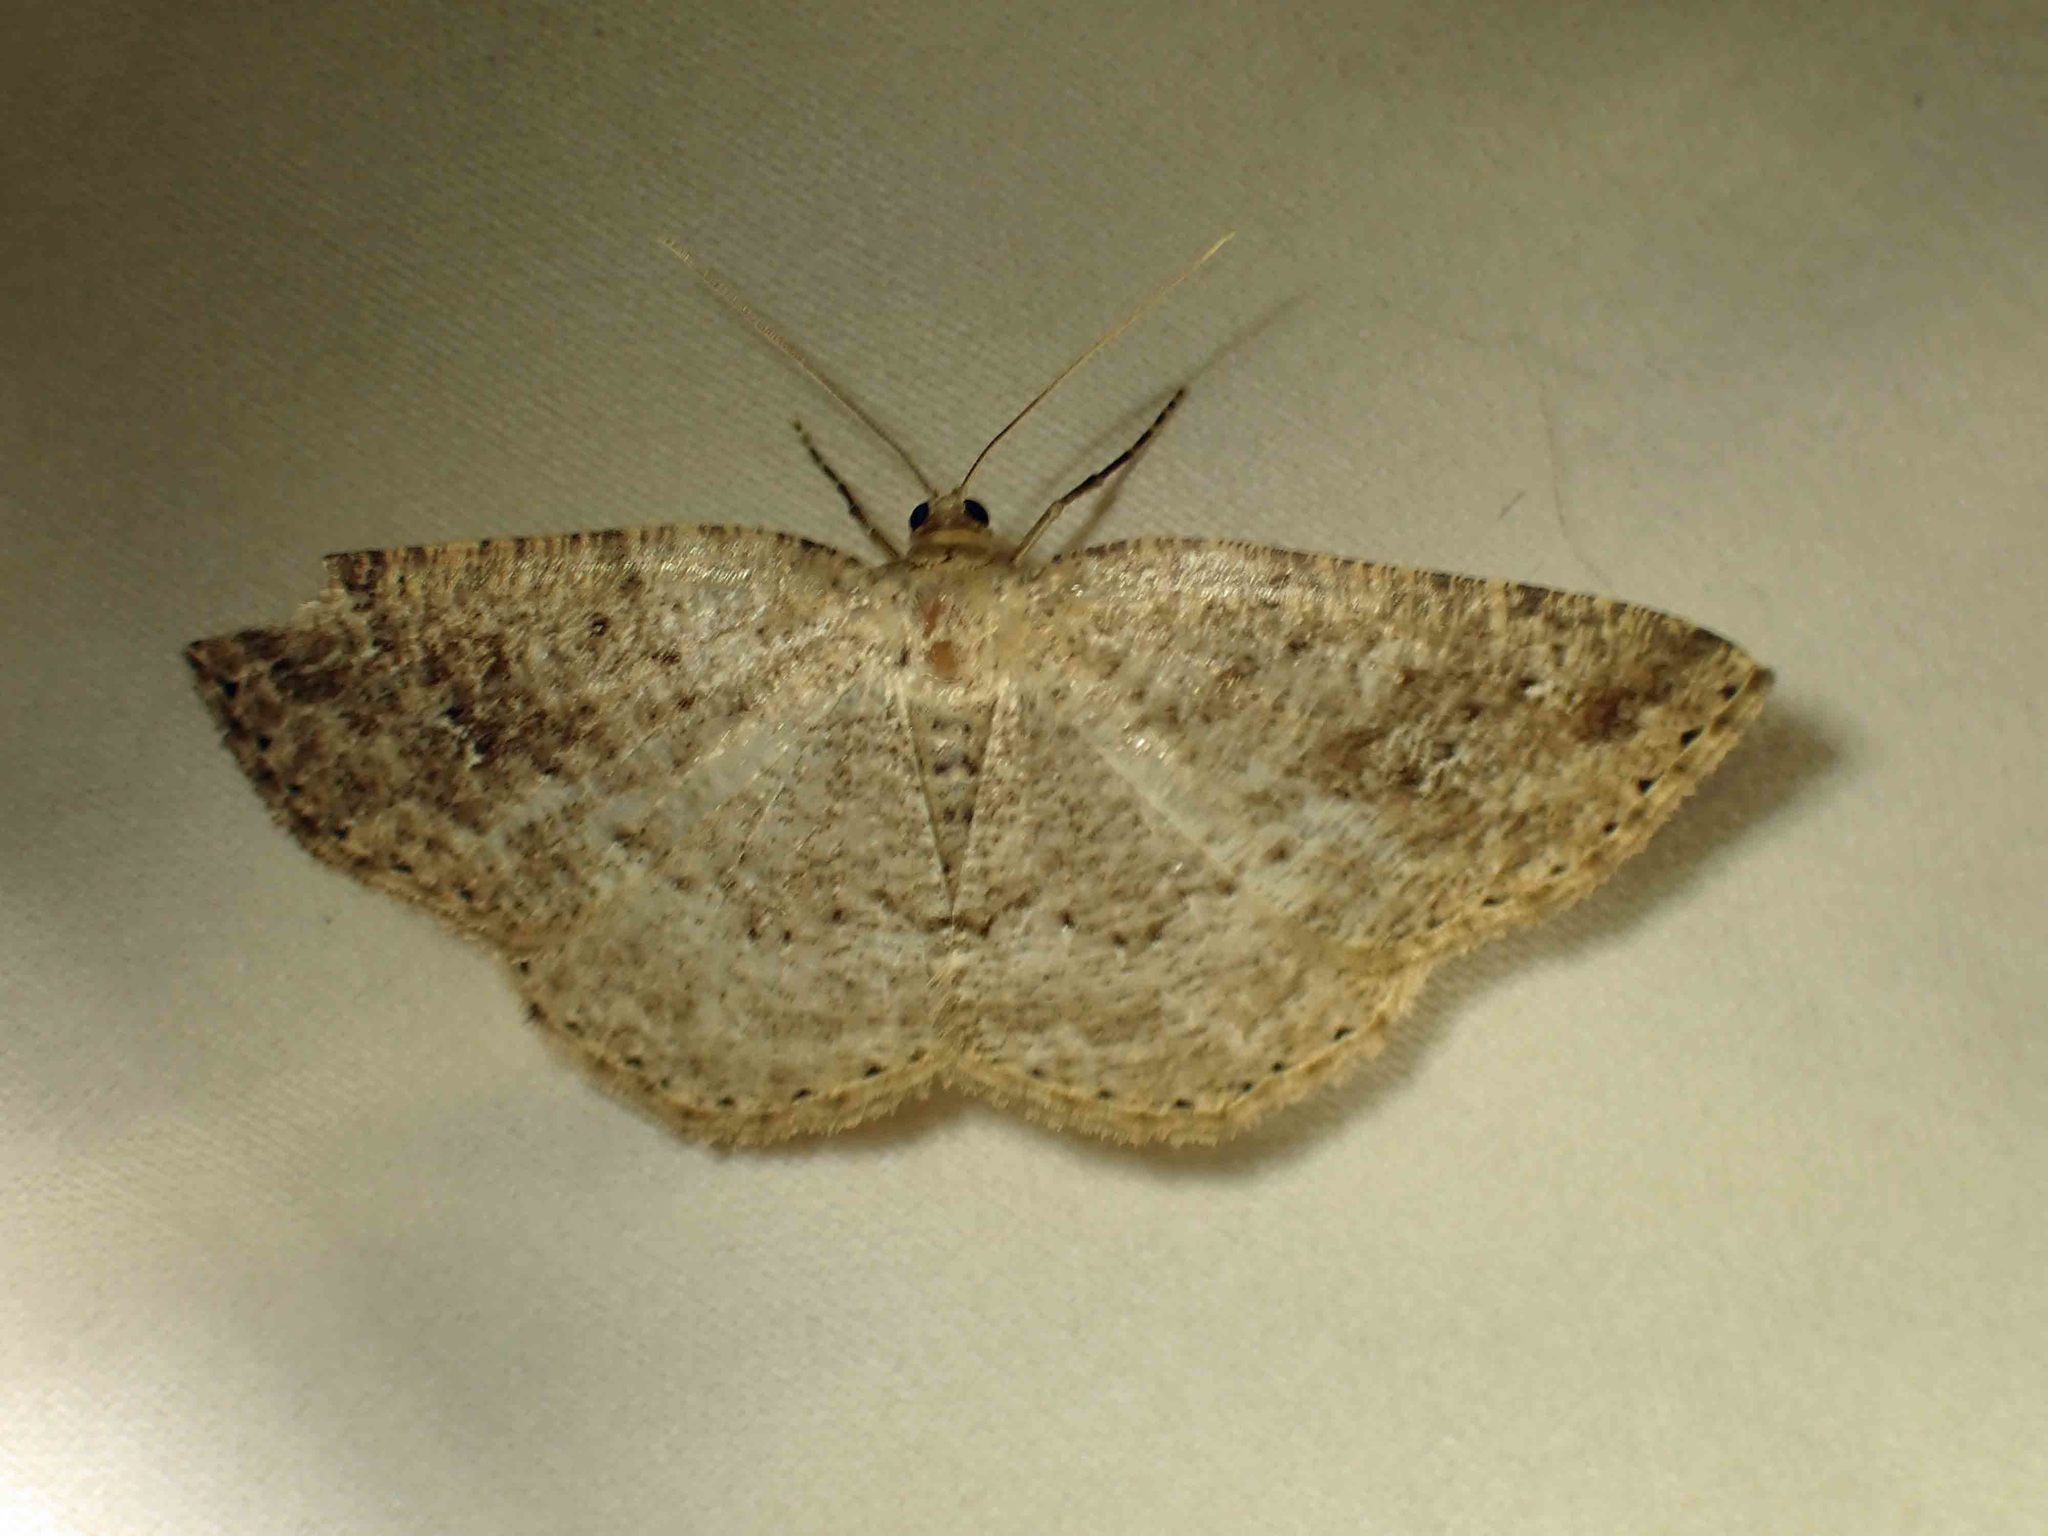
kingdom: Animalia
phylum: Arthropoda
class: Insecta
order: Lepidoptera
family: Geometridae
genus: Homochlodes
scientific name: Homochlodes fritillaria
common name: Pale homochlodes
